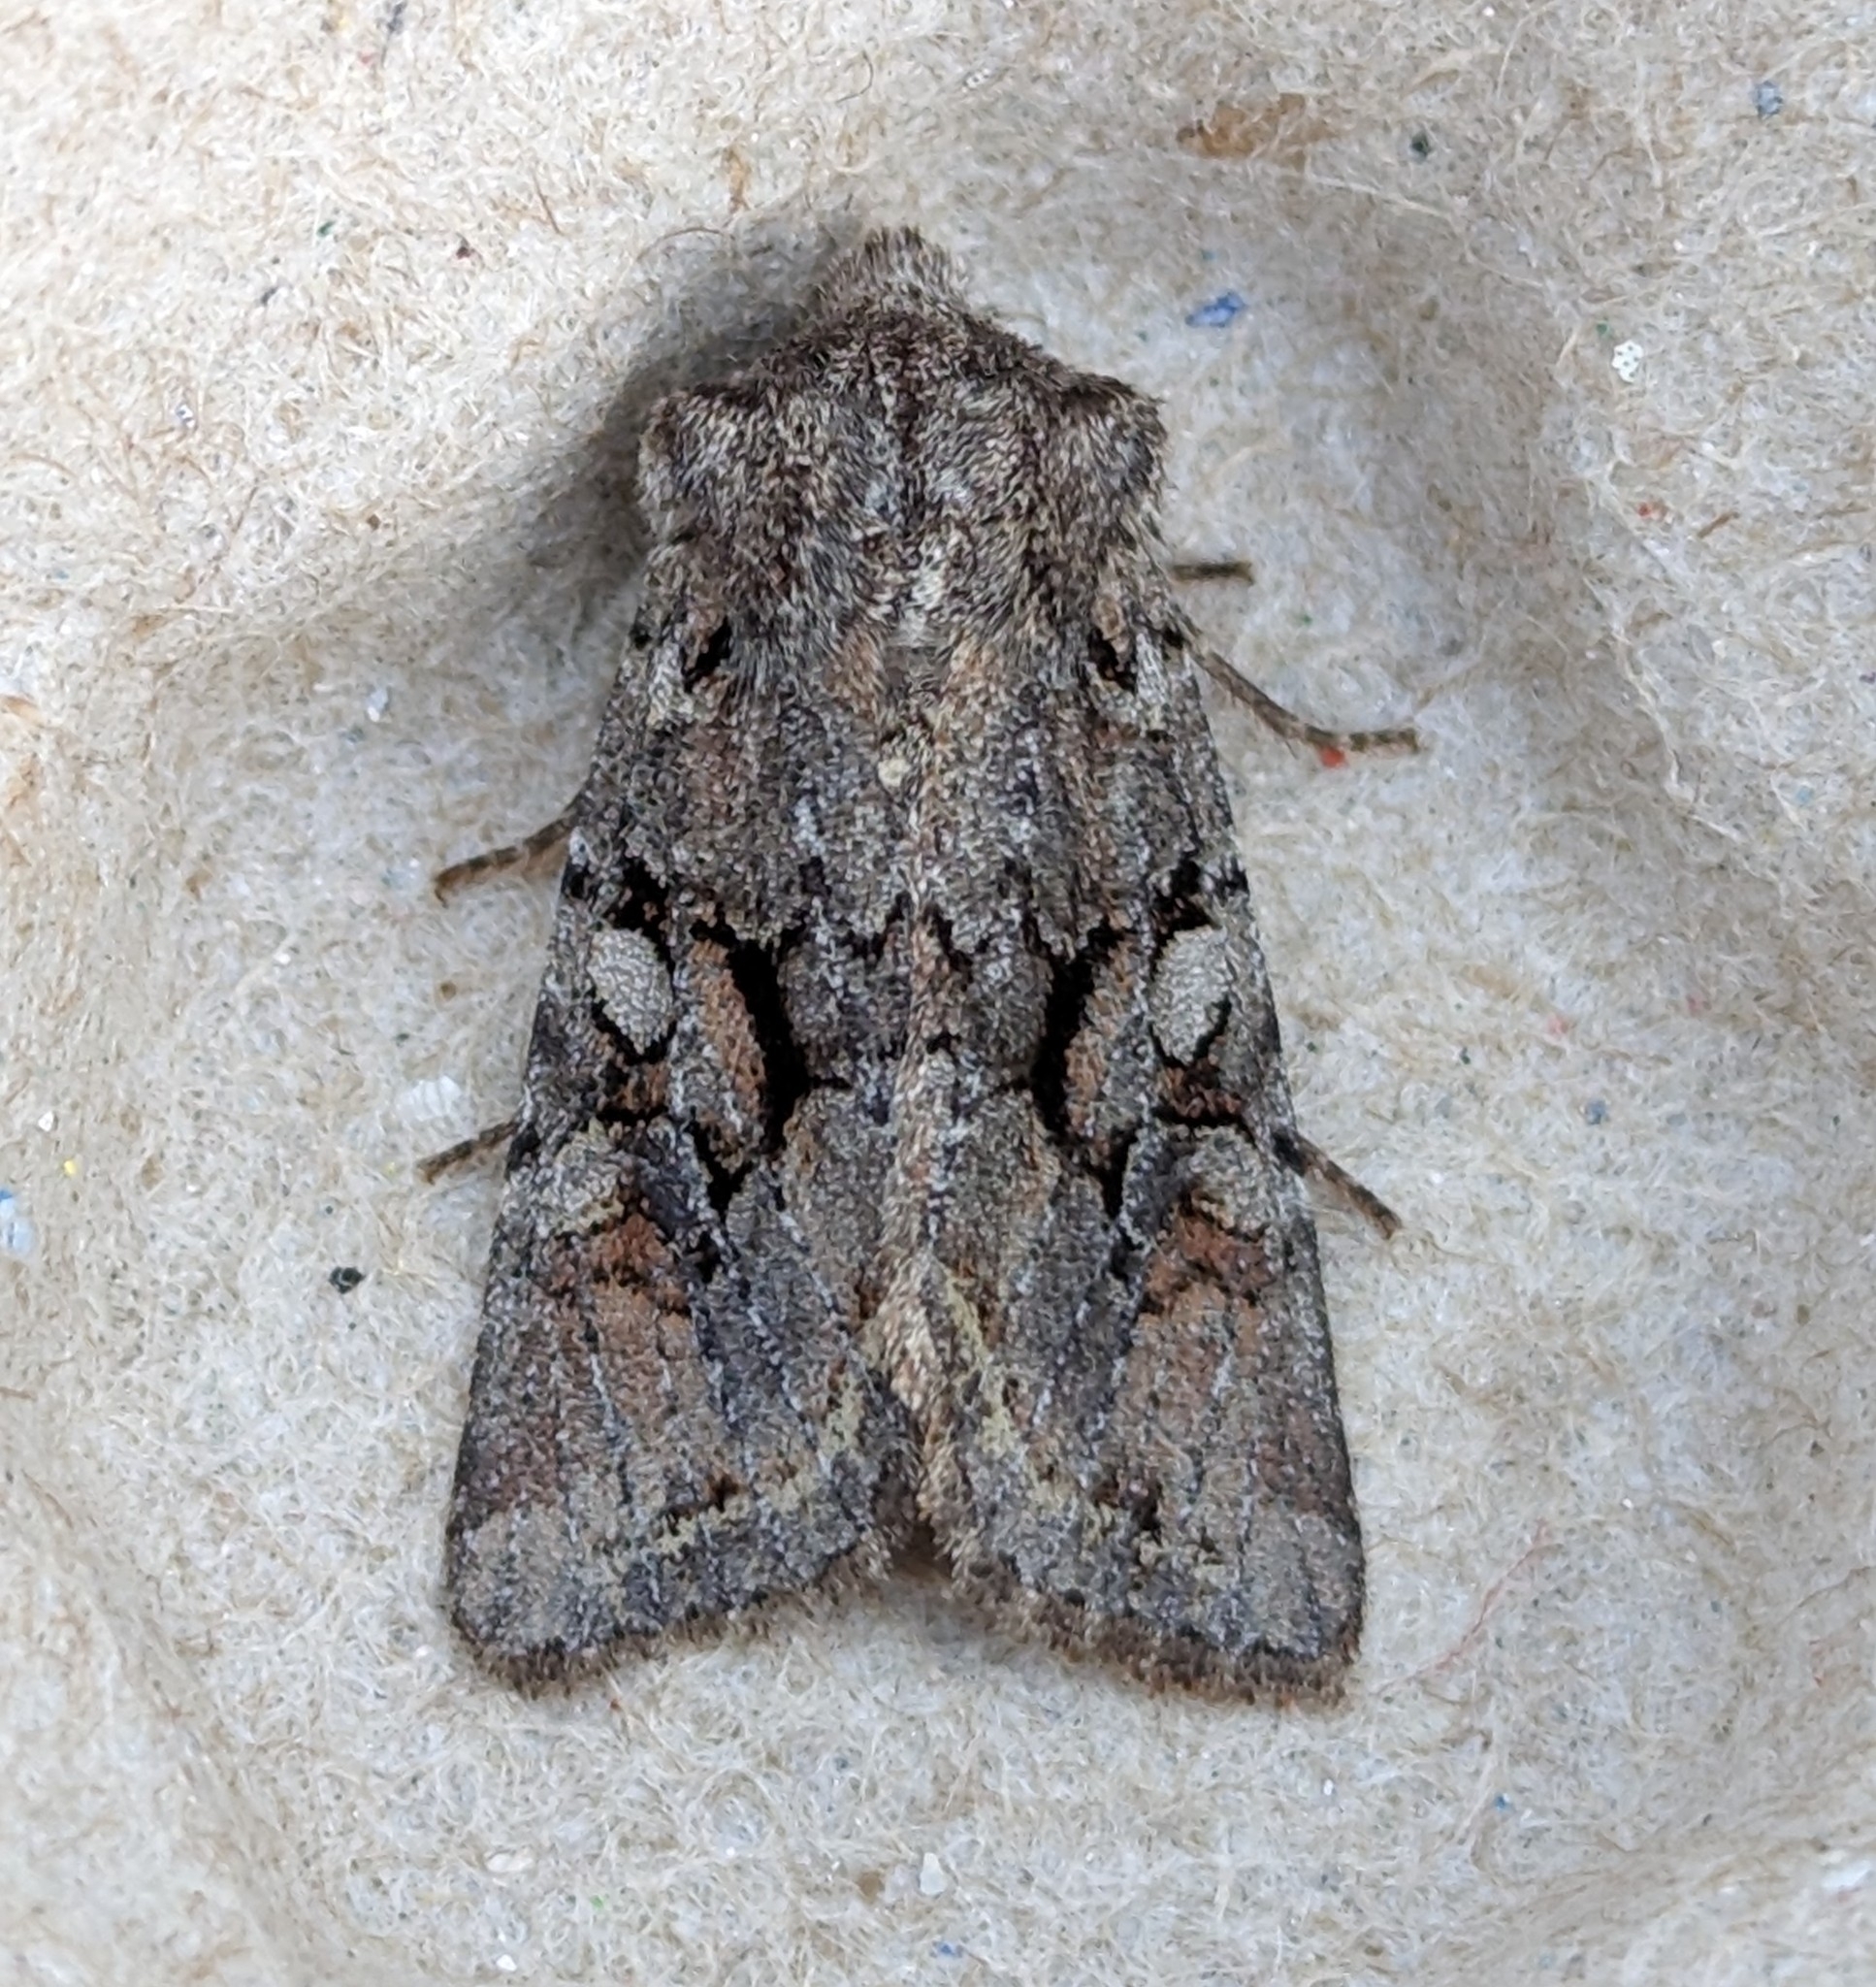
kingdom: Animalia
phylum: Arthropoda
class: Insecta
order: Lepidoptera
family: Noctuidae
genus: Orthosia
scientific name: Orthosia segregata
